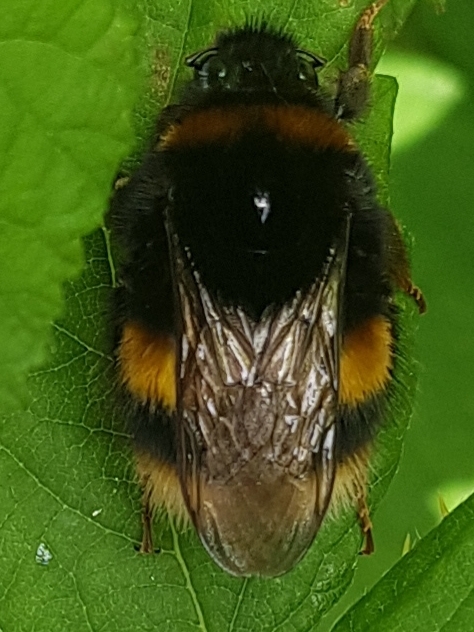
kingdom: Animalia
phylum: Arthropoda
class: Insecta
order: Hymenoptera
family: Apidae
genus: Bombus
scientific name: Bombus terrestris
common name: Buff-tailed bumblebee
